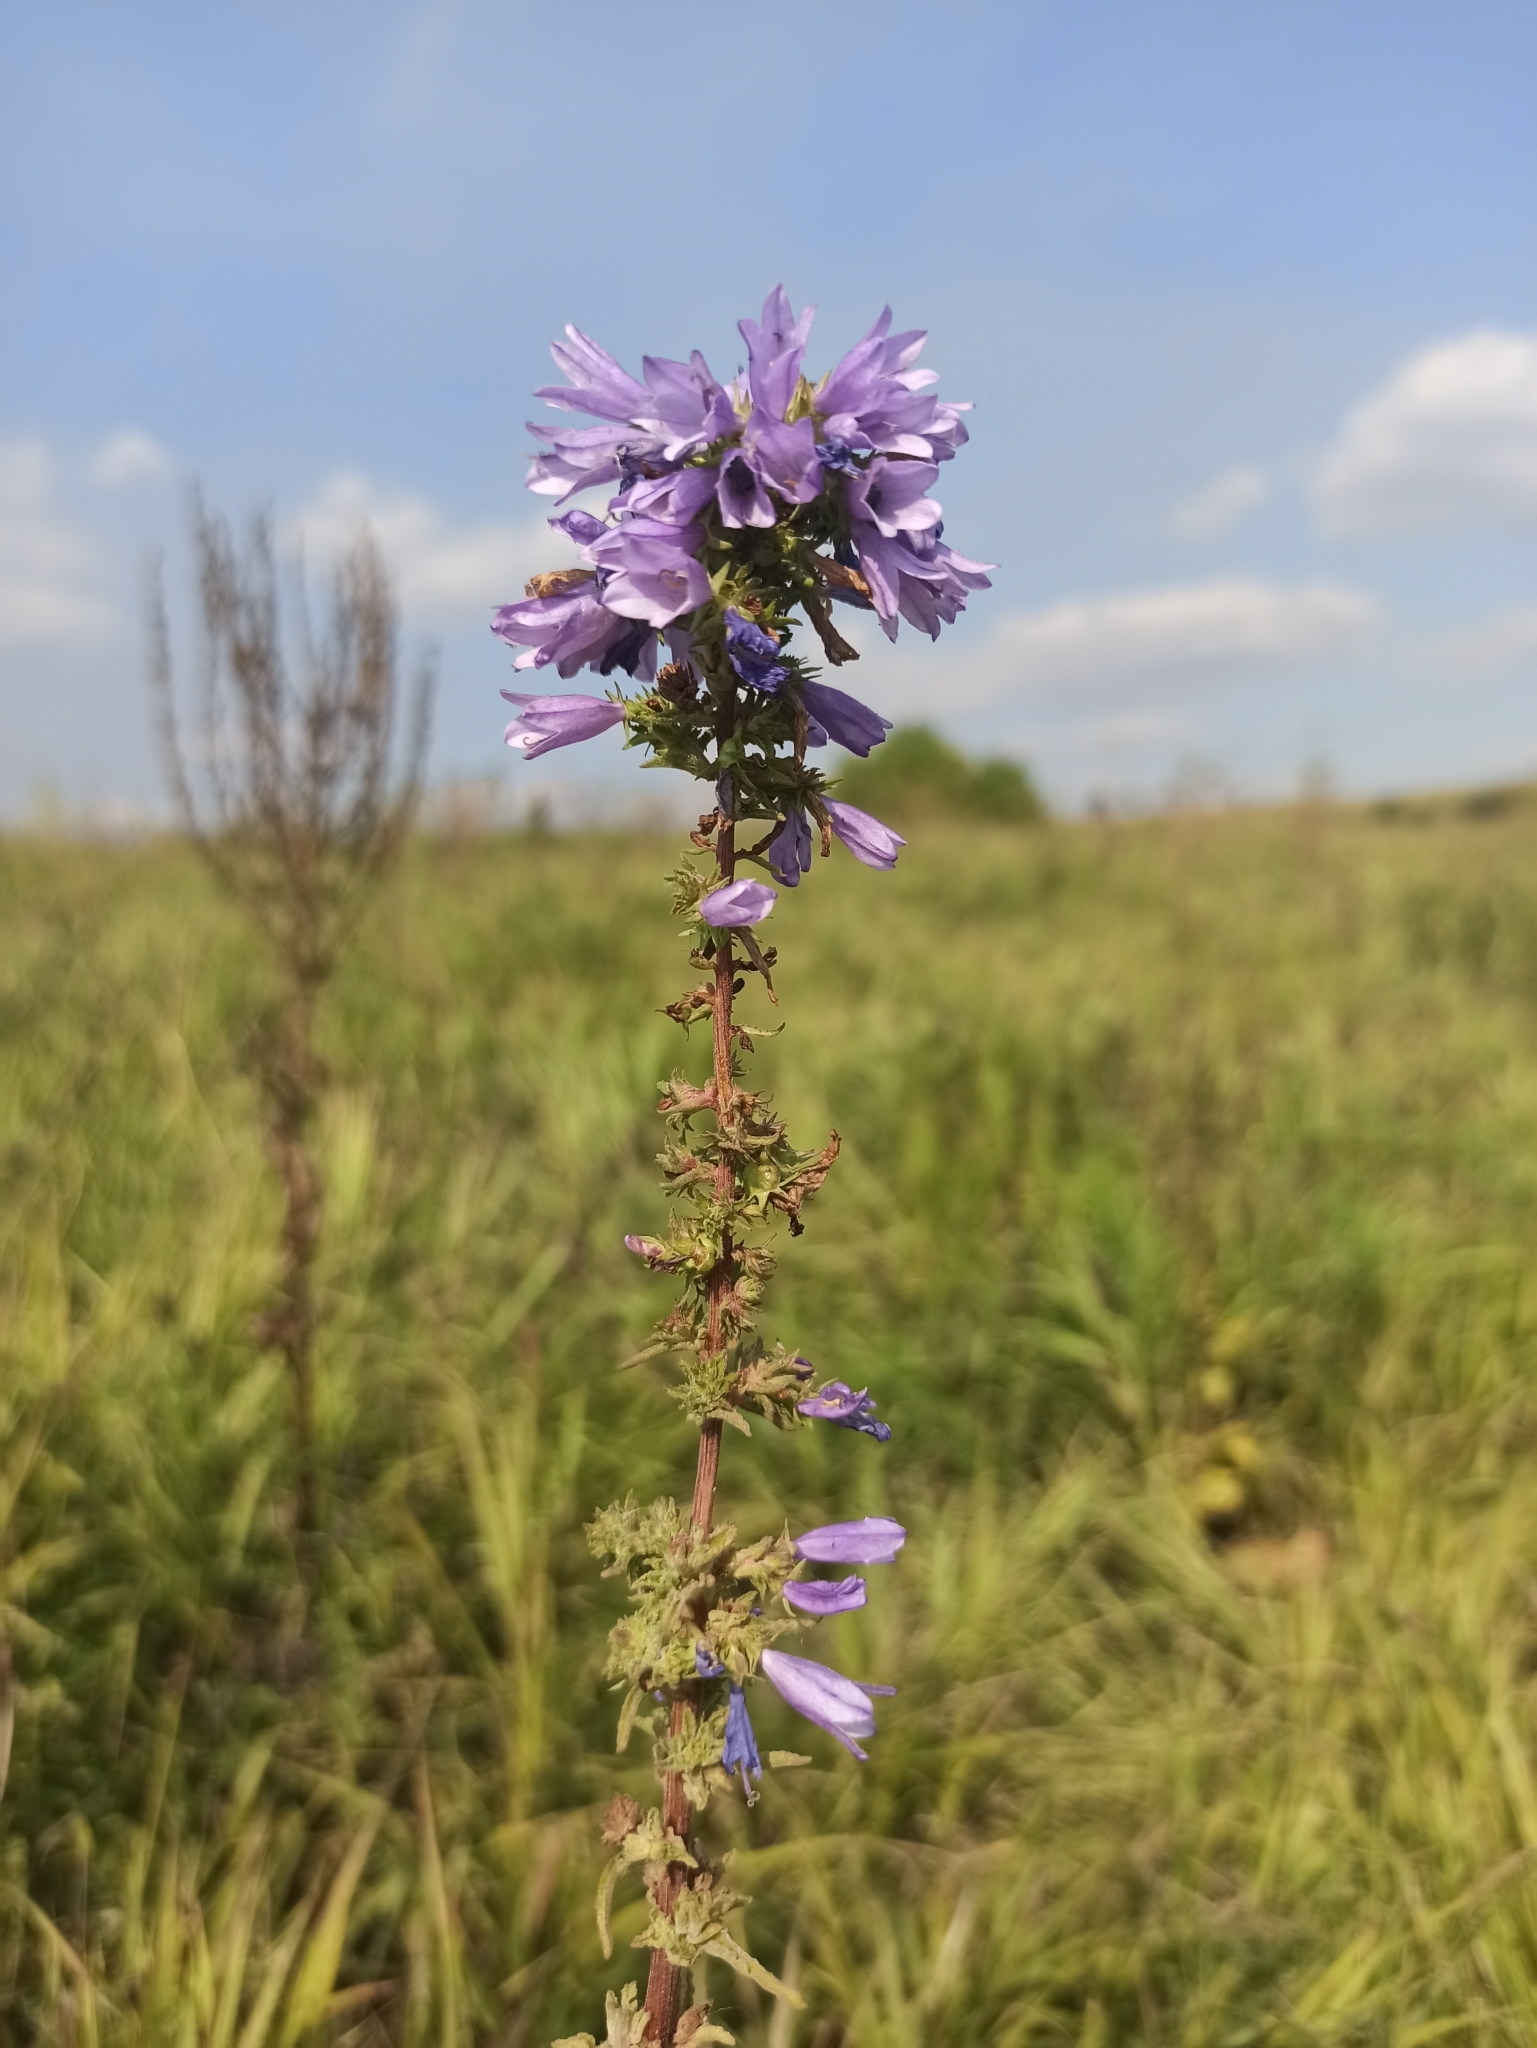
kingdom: Plantae
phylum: Tracheophyta
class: Magnoliopsida
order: Asterales
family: Campanulaceae
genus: Campanula
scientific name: Campanula bononiensis
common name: Pale bellflower
